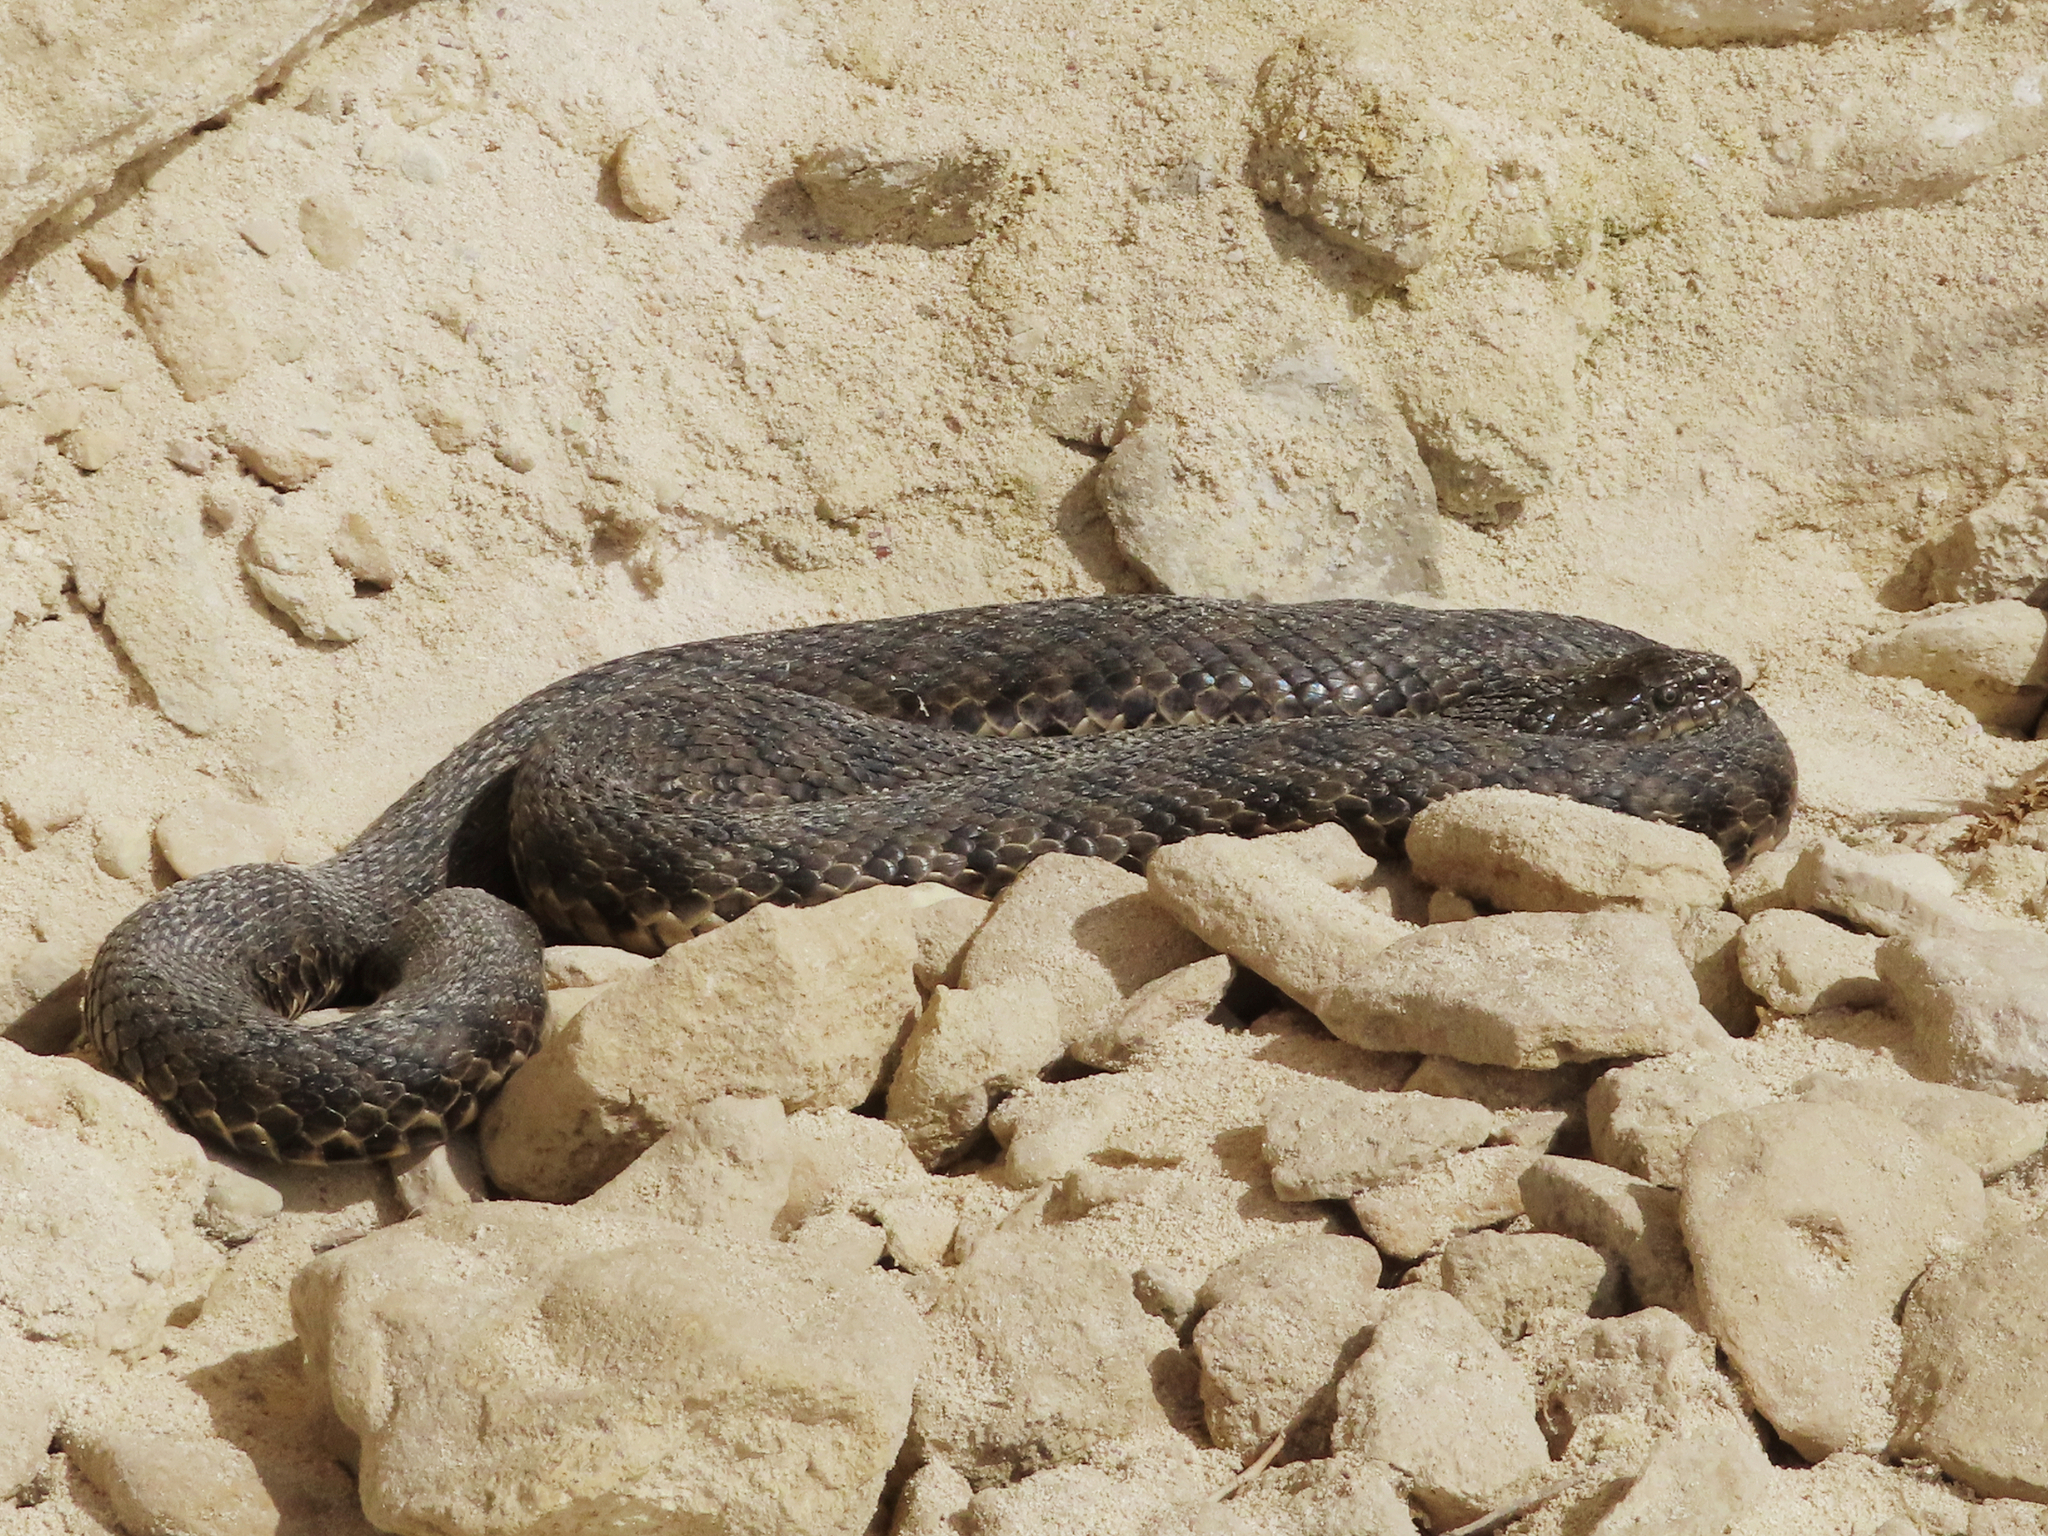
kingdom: Animalia
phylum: Chordata
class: Squamata
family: Colubridae
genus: Natrix
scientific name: Natrix tessellata
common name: Dice snake
